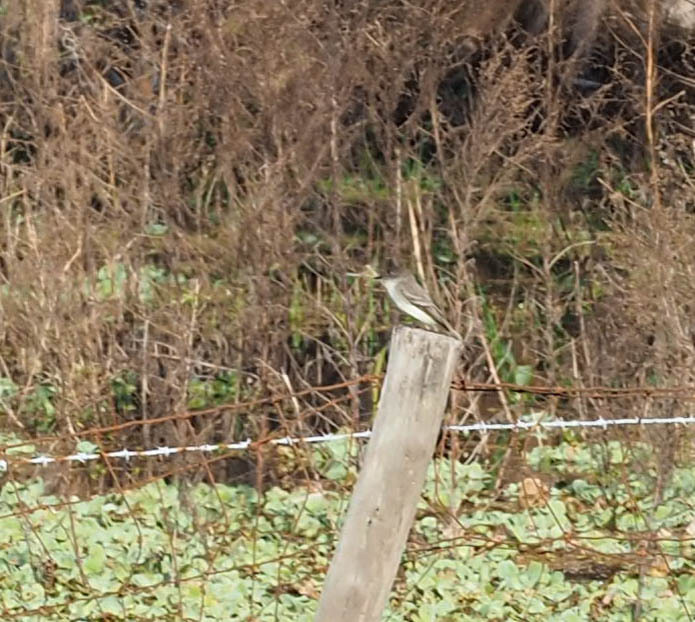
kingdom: Animalia
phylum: Chordata
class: Aves
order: Passeriformes
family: Tyrannidae
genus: Sayornis
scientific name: Sayornis phoebe
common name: Eastern phoebe
